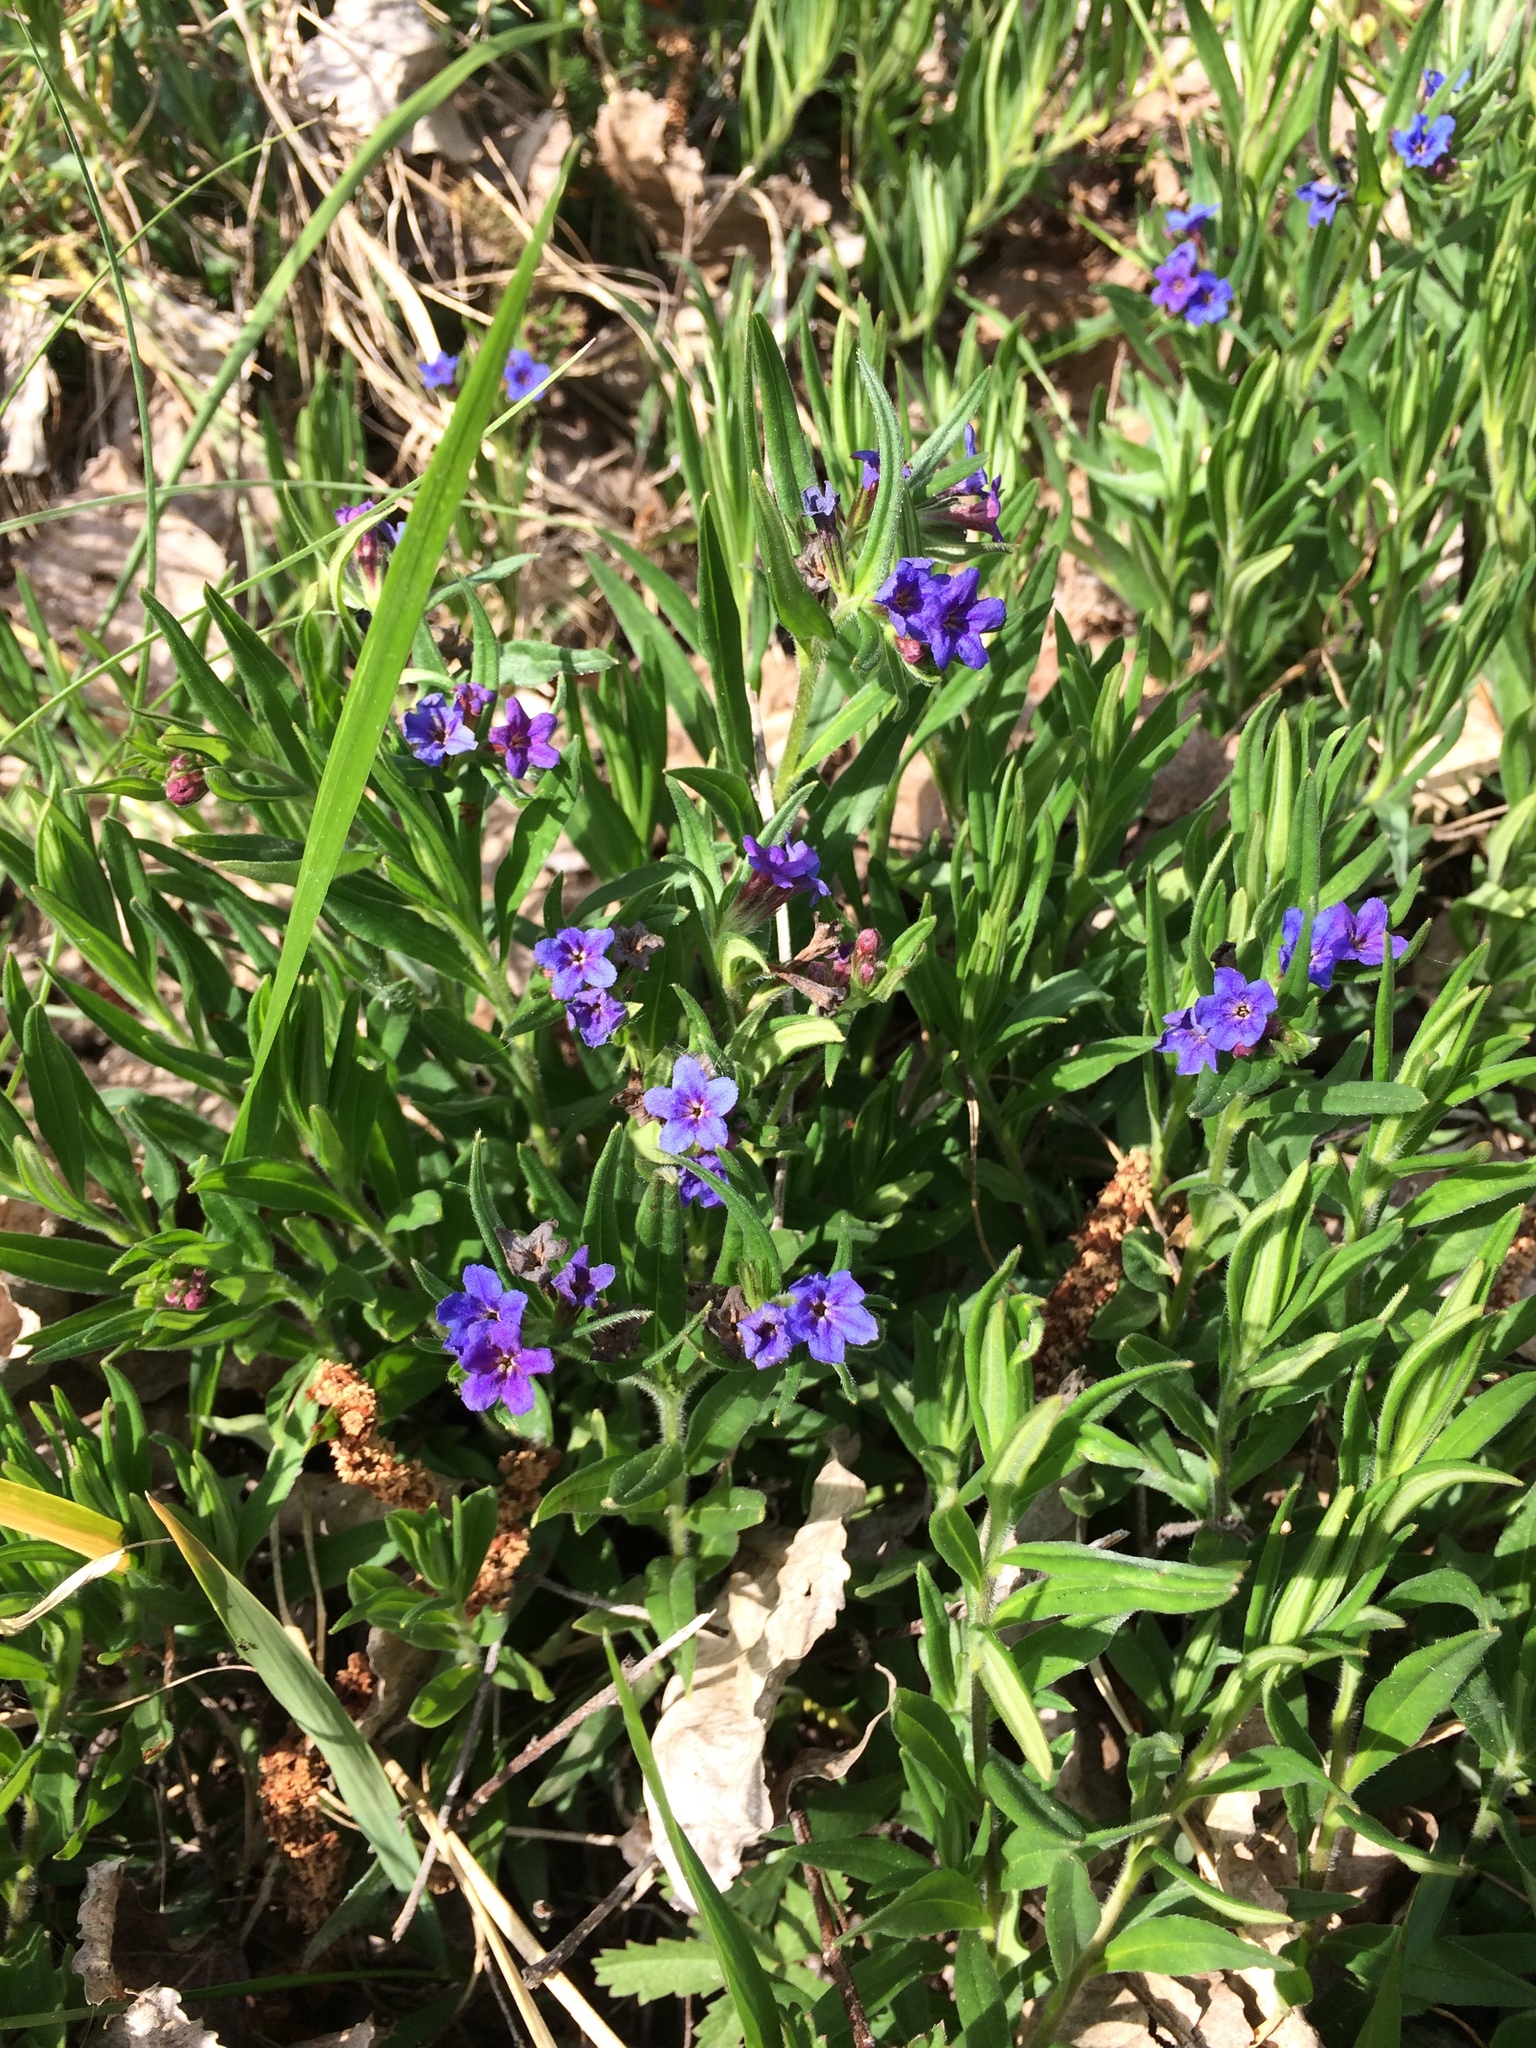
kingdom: Plantae
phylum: Tracheophyta
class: Magnoliopsida
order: Boraginales
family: Boraginaceae
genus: Aegonychon
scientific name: Aegonychon purpurocaeruleum
